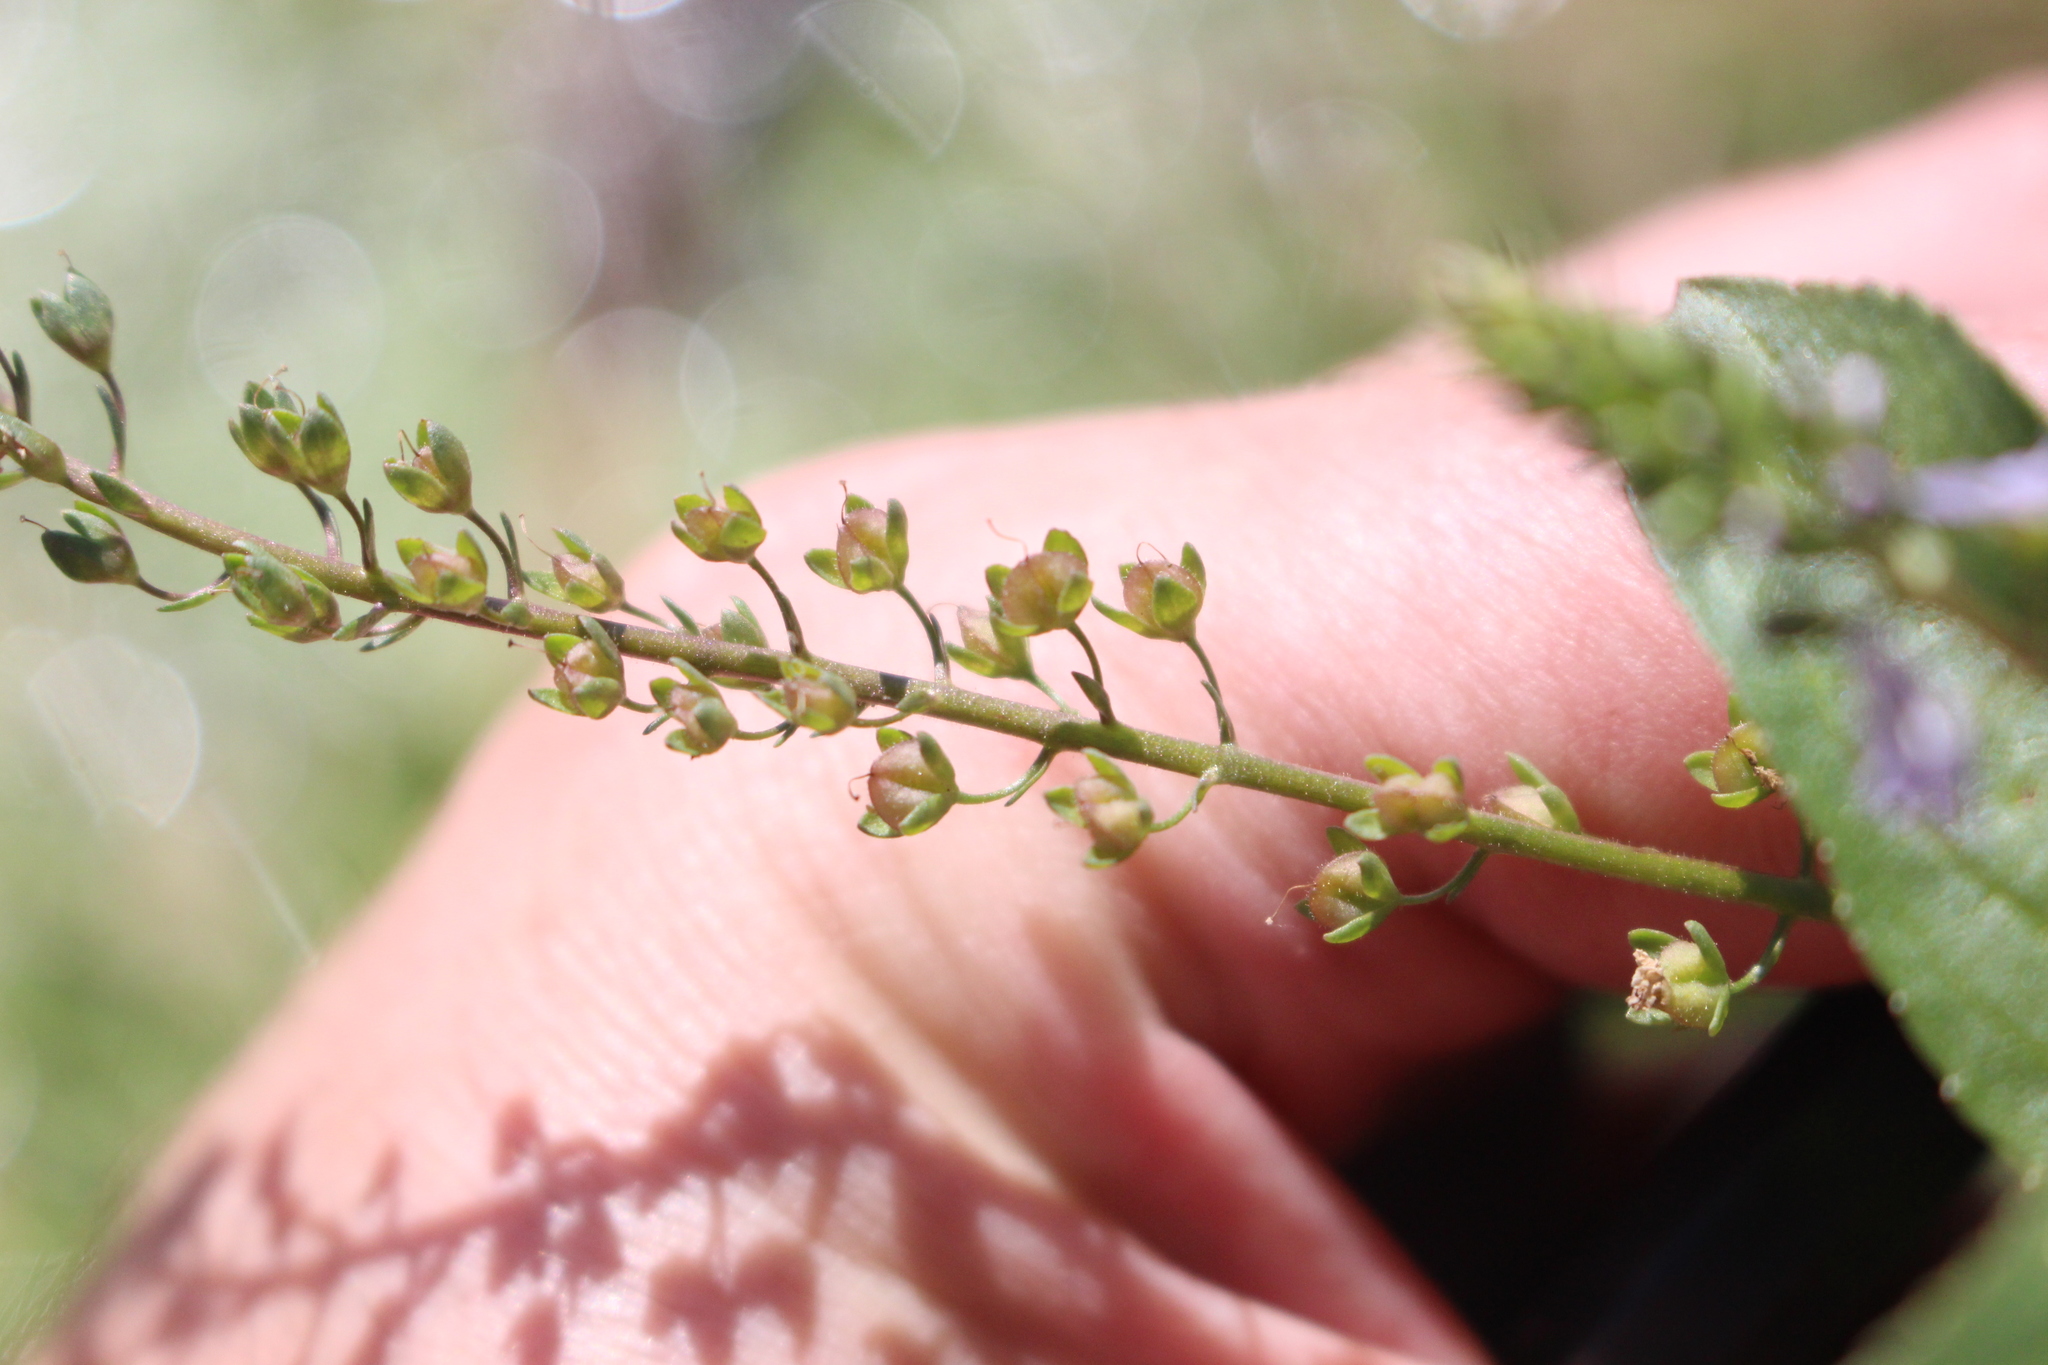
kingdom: Plantae
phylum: Tracheophyta
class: Magnoliopsida
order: Lamiales
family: Plantaginaceae
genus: Veronica
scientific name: Veronica anagallis-aquatica
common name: Water speedwell
